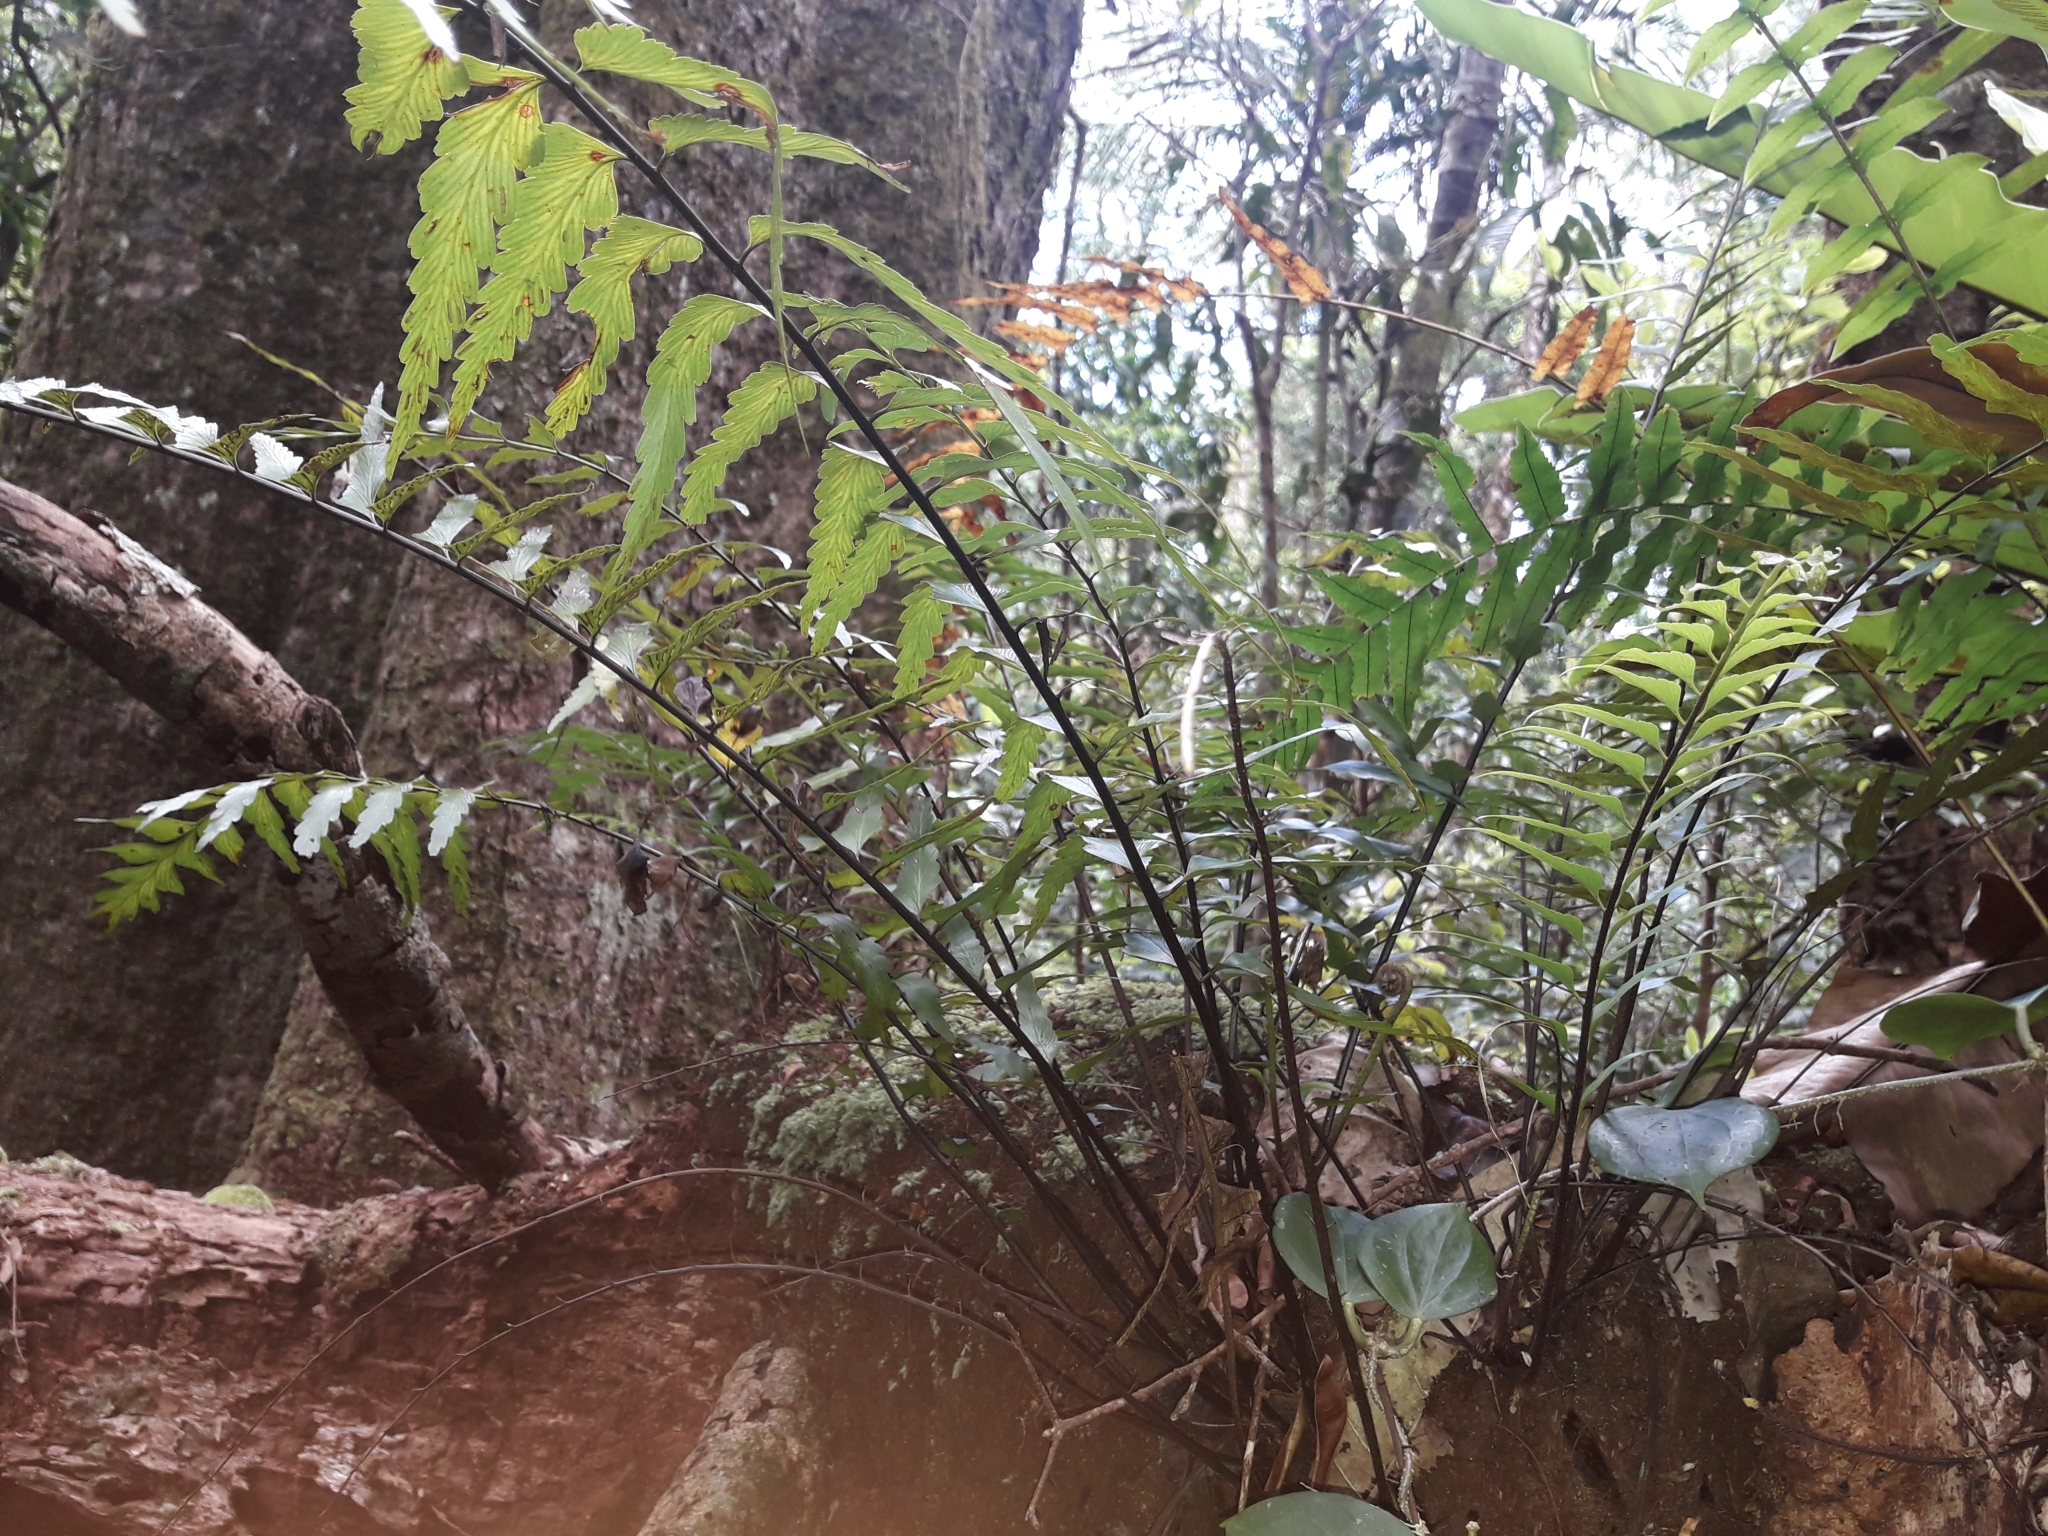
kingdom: Plantae
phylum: Tracheophyta
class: Polypodiopsida
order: Polypodiales
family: Aspleniaceae
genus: Asplenium
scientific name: Asplenium polyodon
